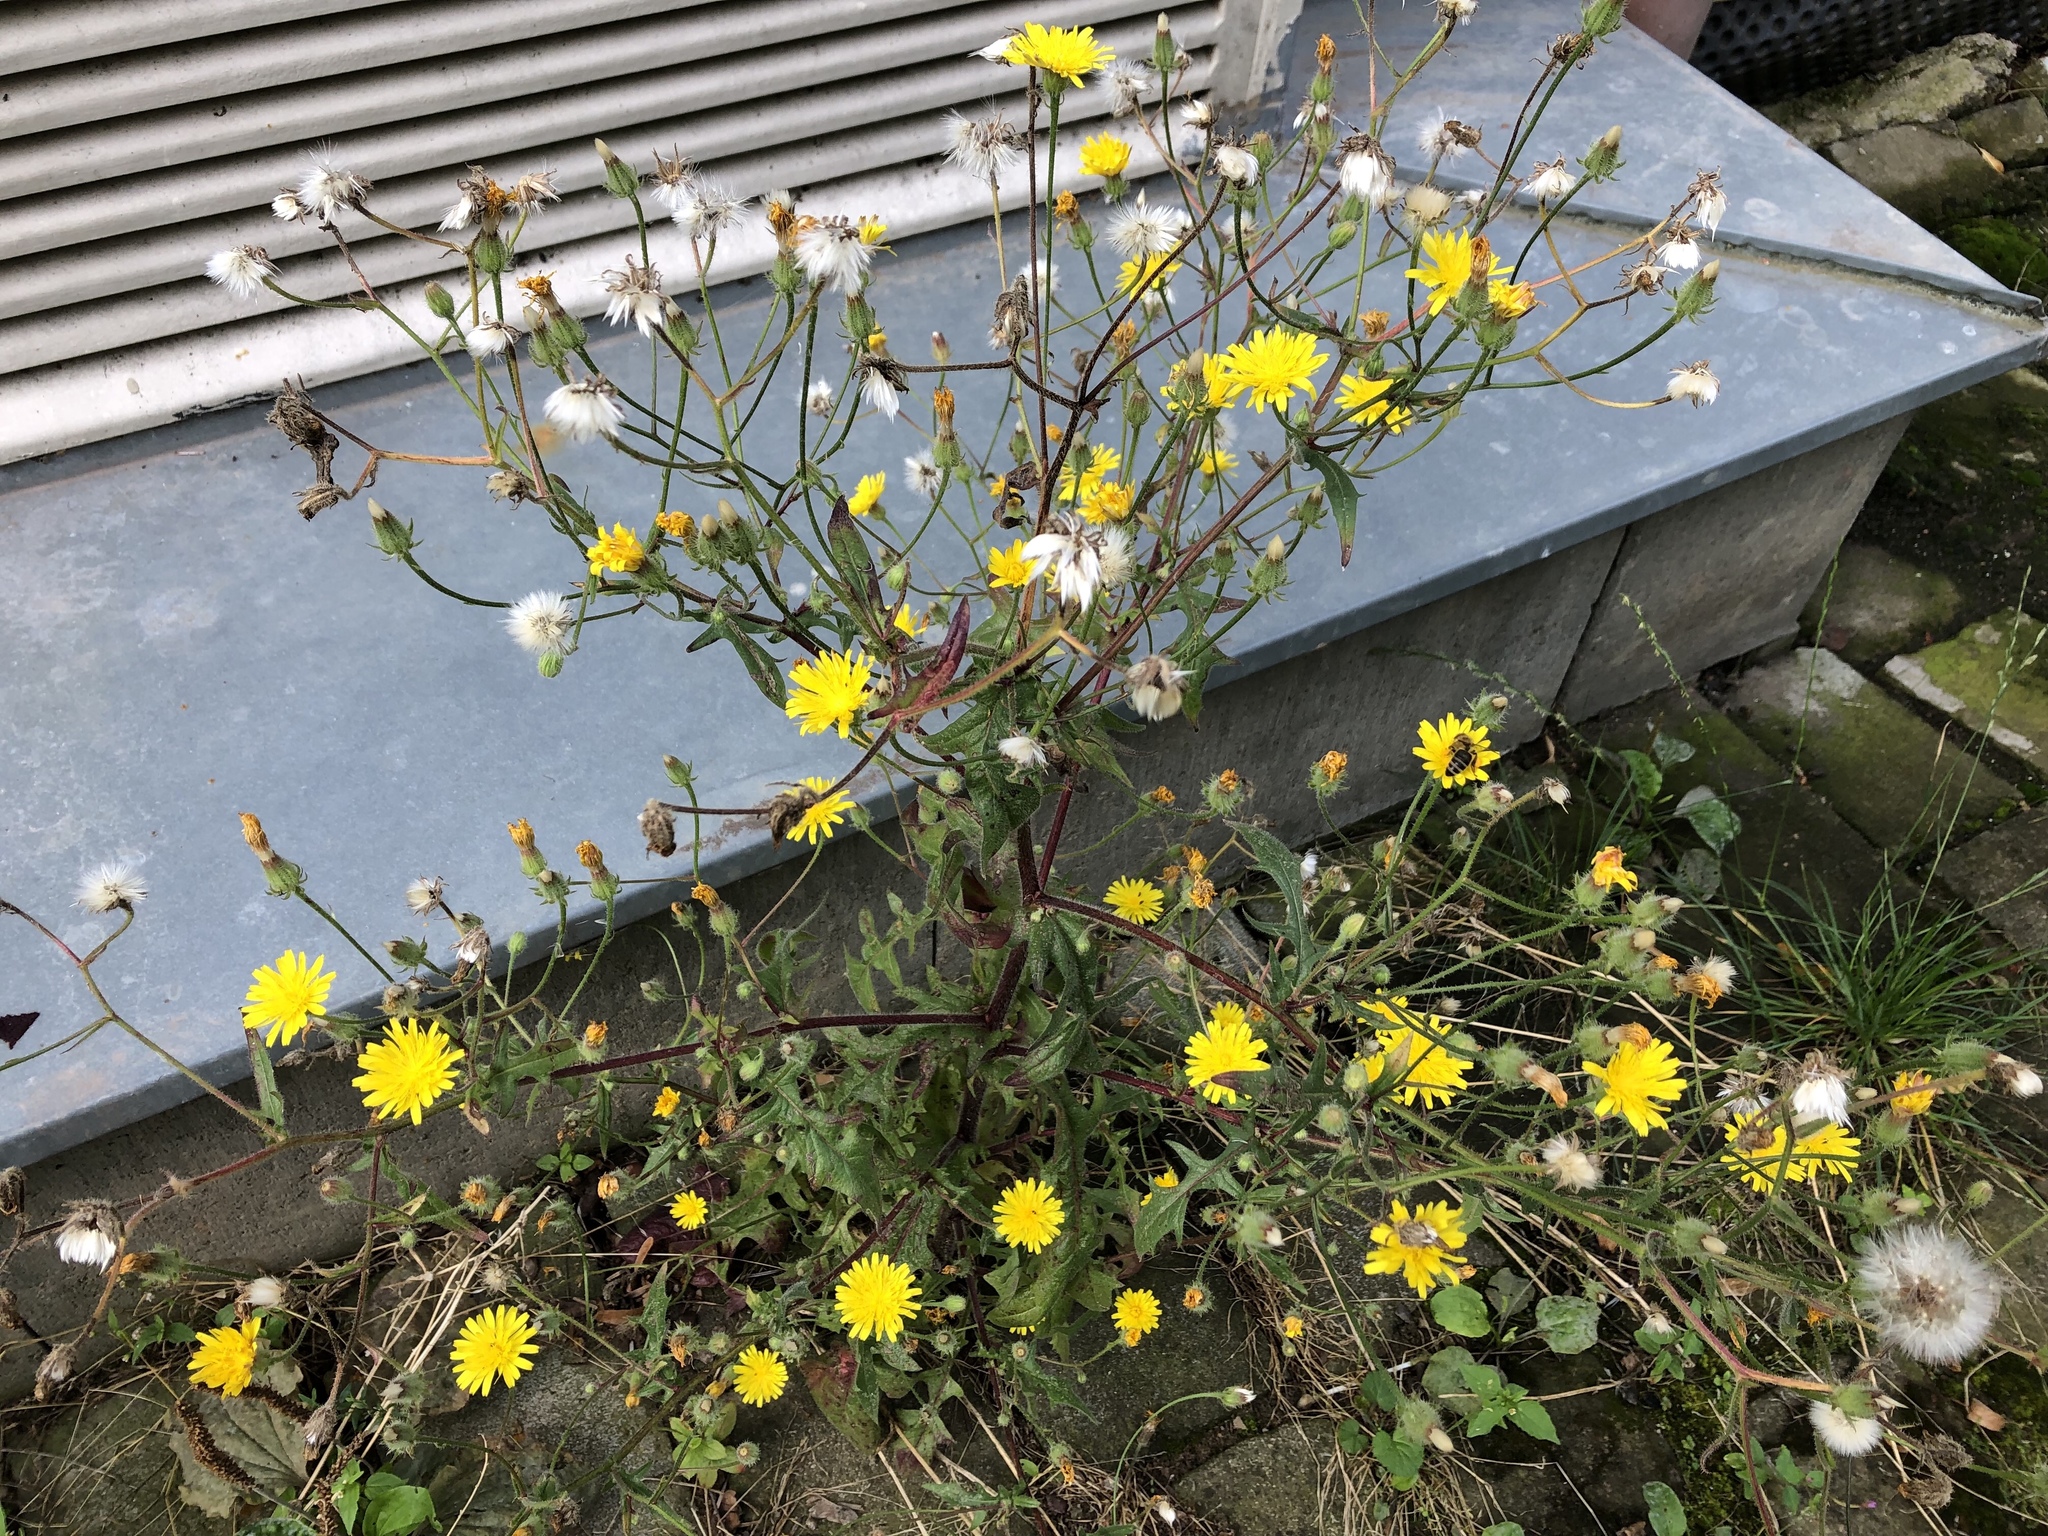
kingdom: Plantae
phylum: Tracheophyta
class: Magnoliopsida
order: Asterales
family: Asteraceae
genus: Crepis
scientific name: Crepis foetida
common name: Stinking hawk's-beard
